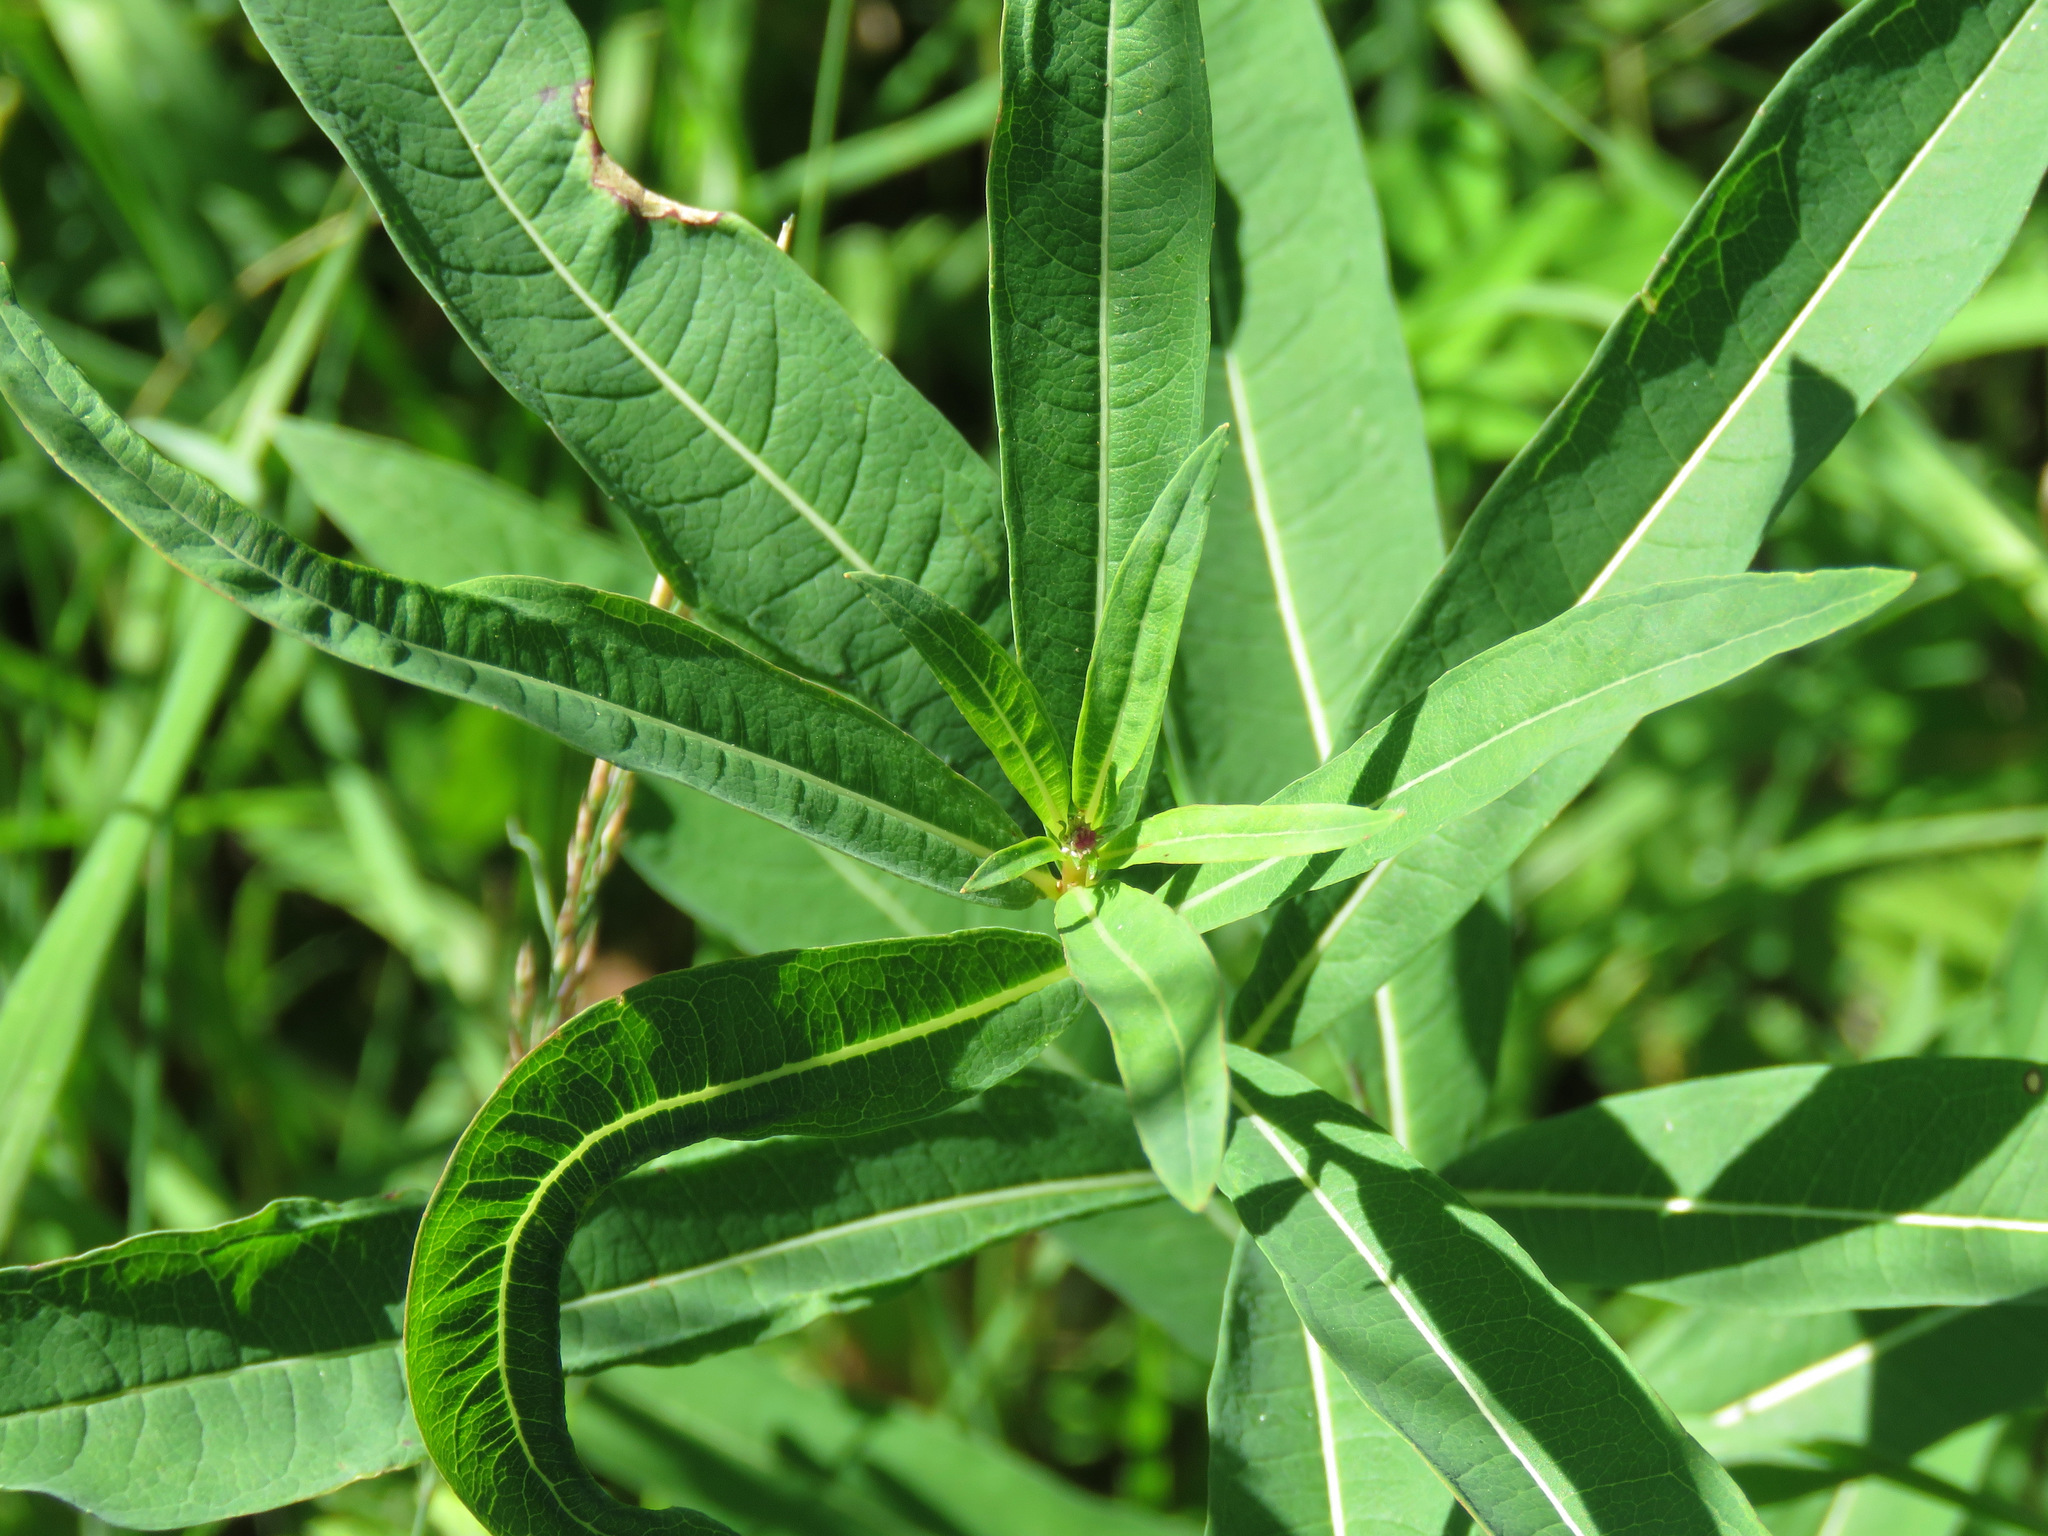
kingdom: Plantae
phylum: Tracheophyta
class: Magnoliopsida
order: Myrtales
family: Onagraceae
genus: Chamaenerion
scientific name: Chamaenerion angustifolium
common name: Fireweed
